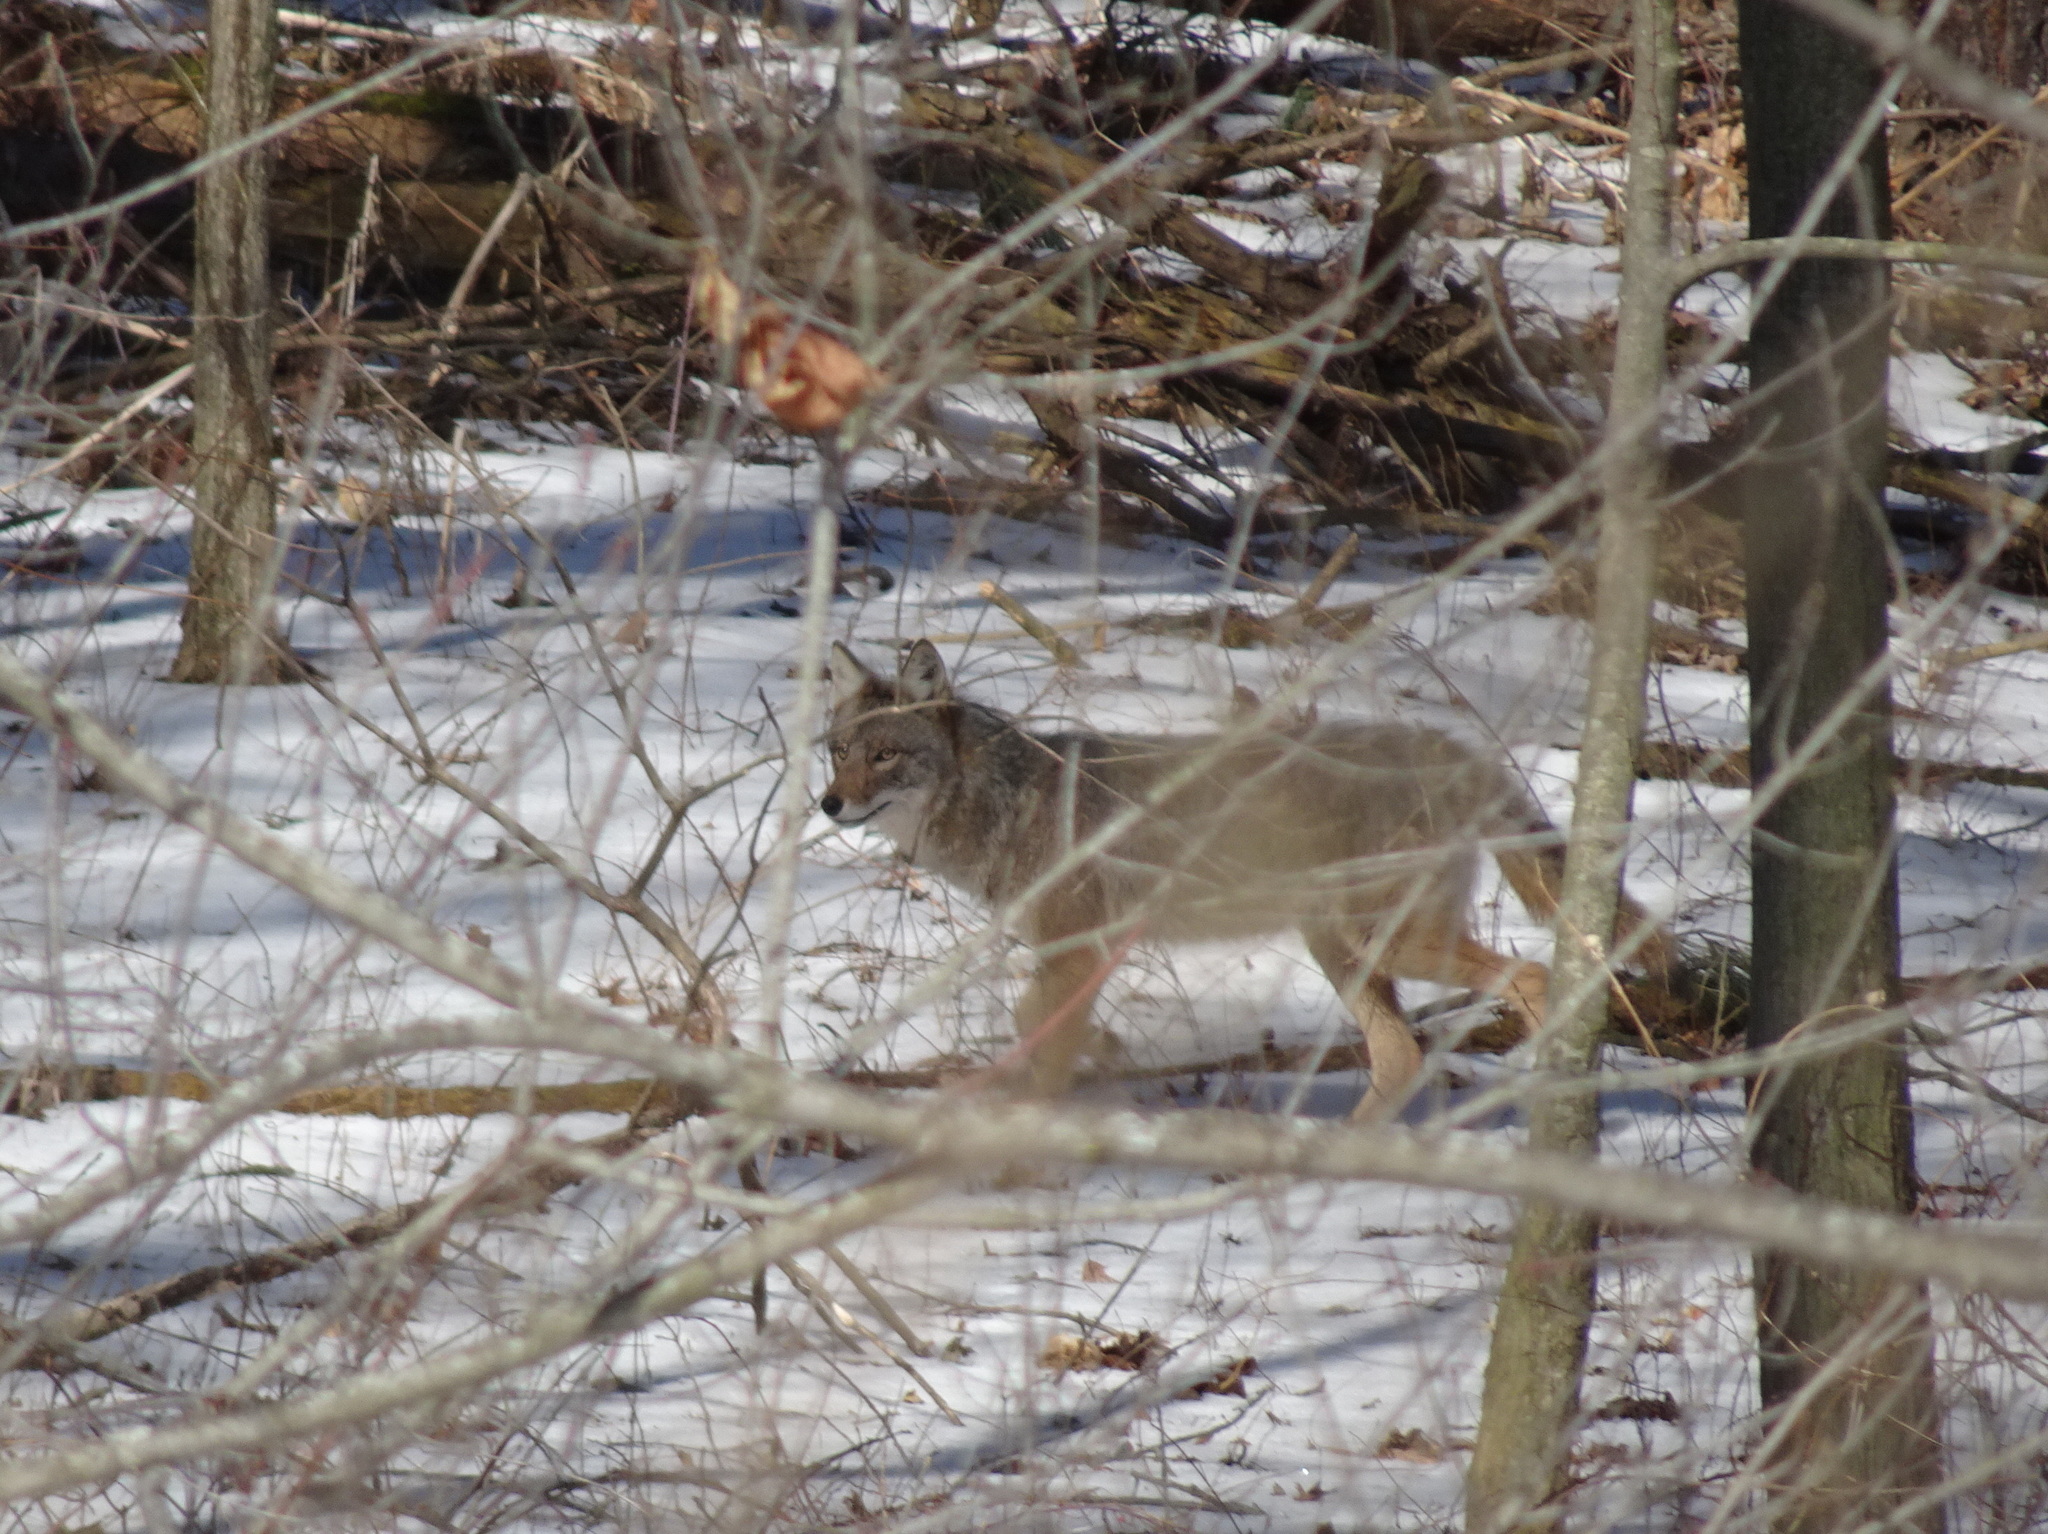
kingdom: Animalia
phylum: Chordata
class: Mammalia
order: Carnivora
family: Canidae
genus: Canis
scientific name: Canis latrans
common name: Coyote
